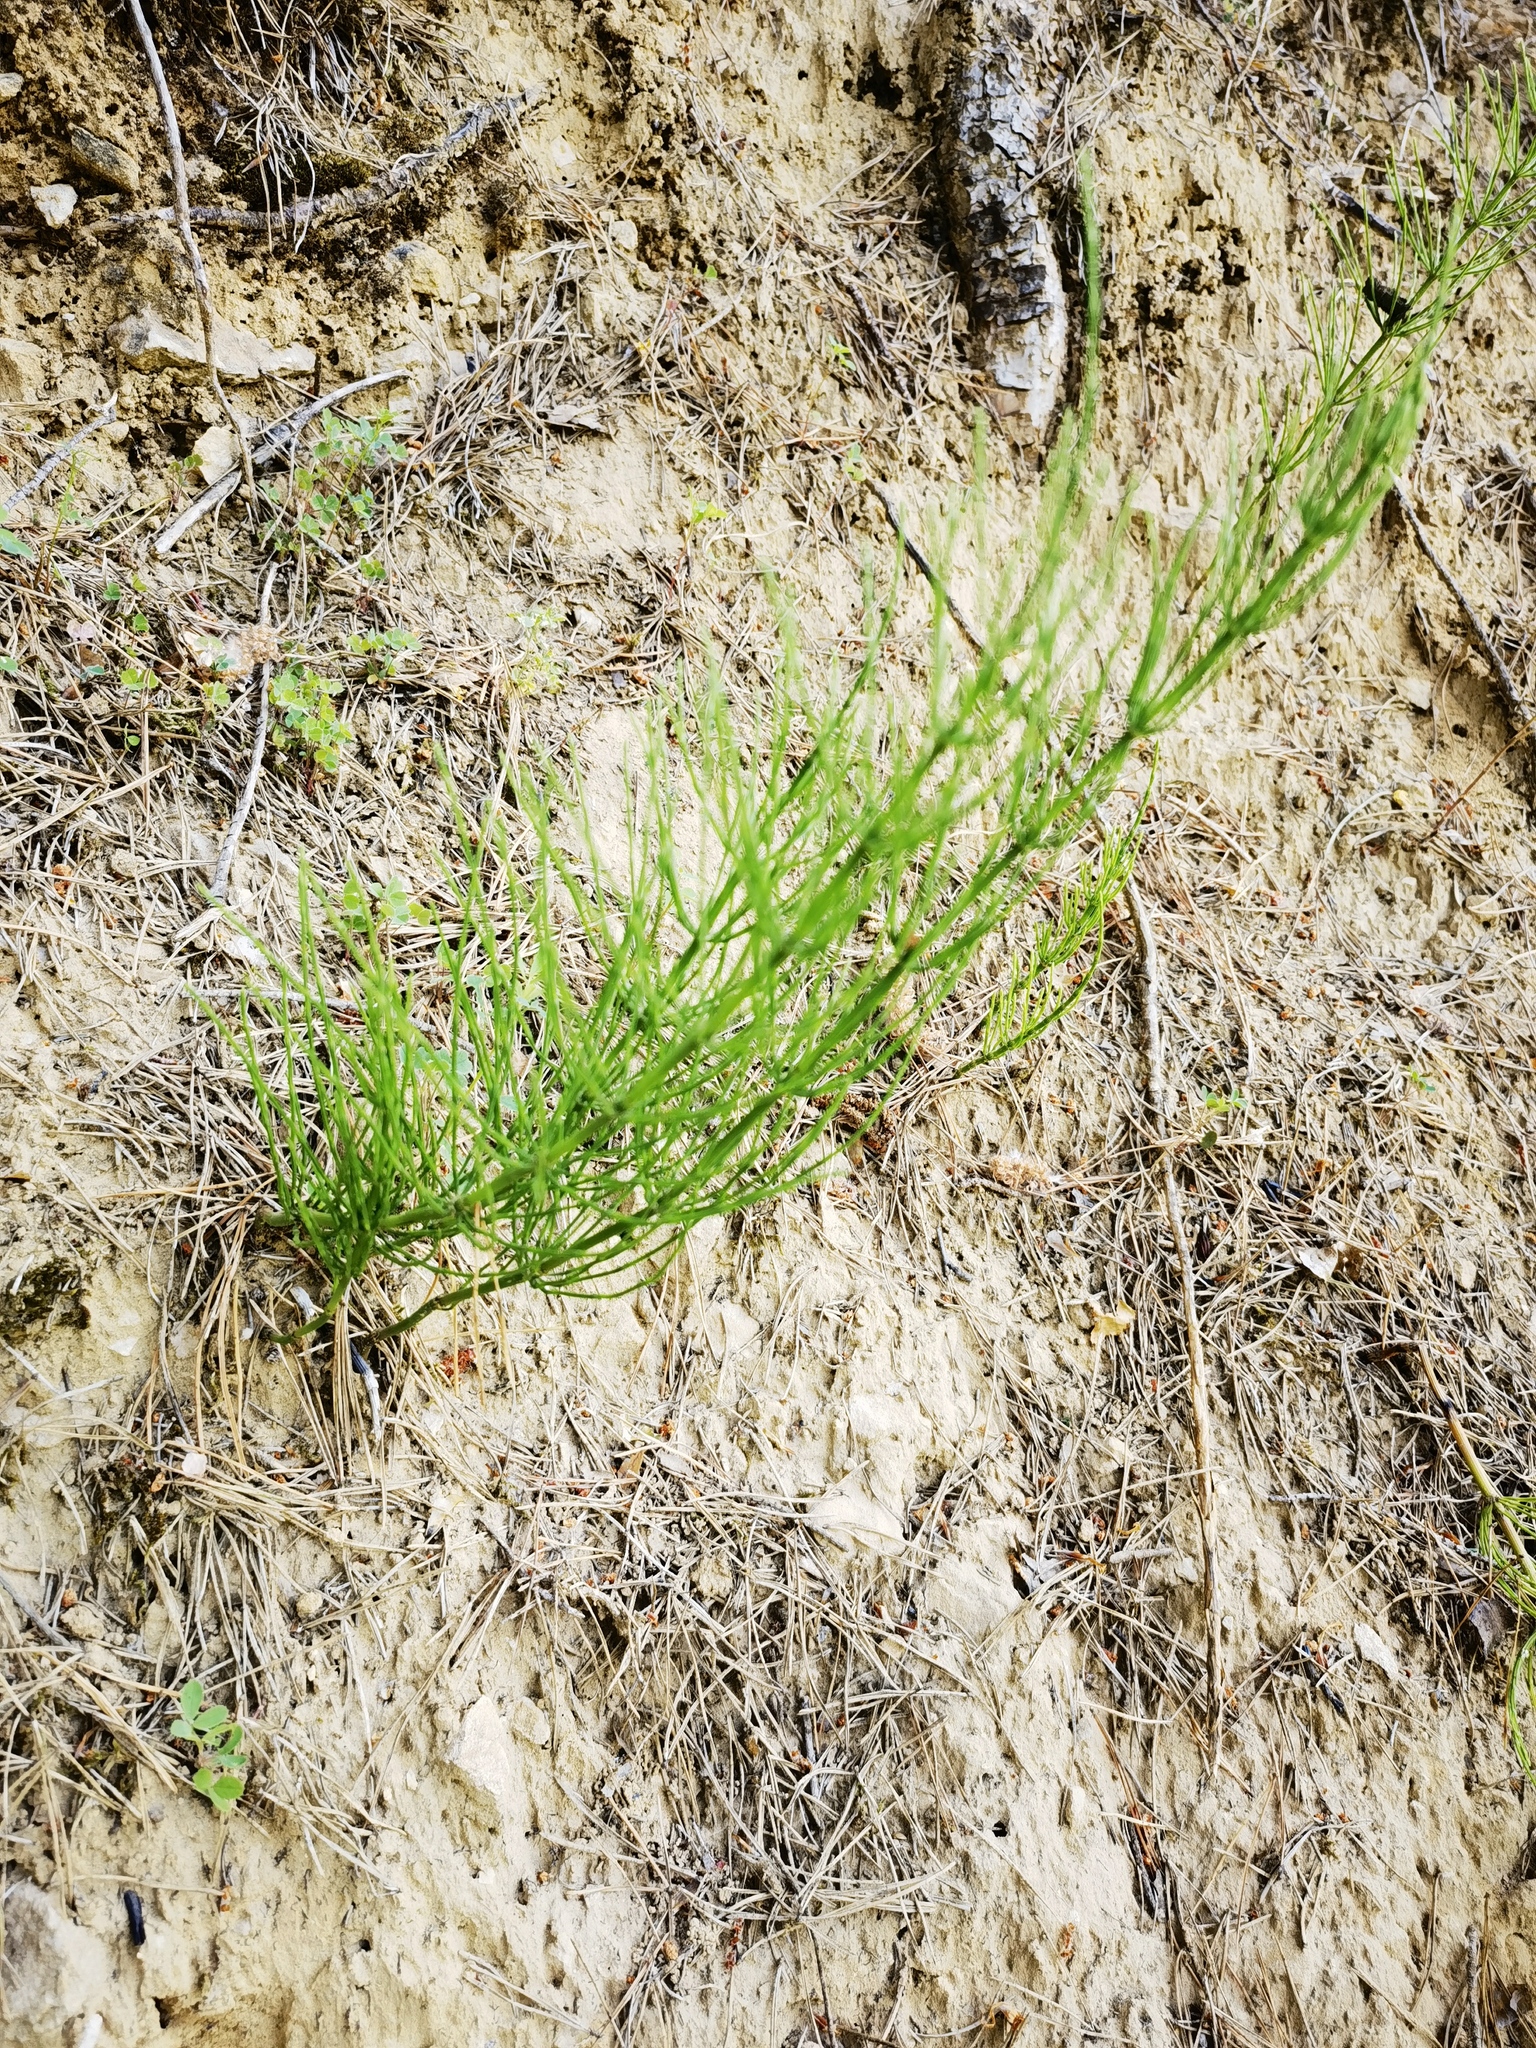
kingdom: Plantae
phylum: Tracheophyta
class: Polypodiopsida
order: Equisetales
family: Equisetaceae
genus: Equisetum
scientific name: Equisetum arvense
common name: Field horsetail
